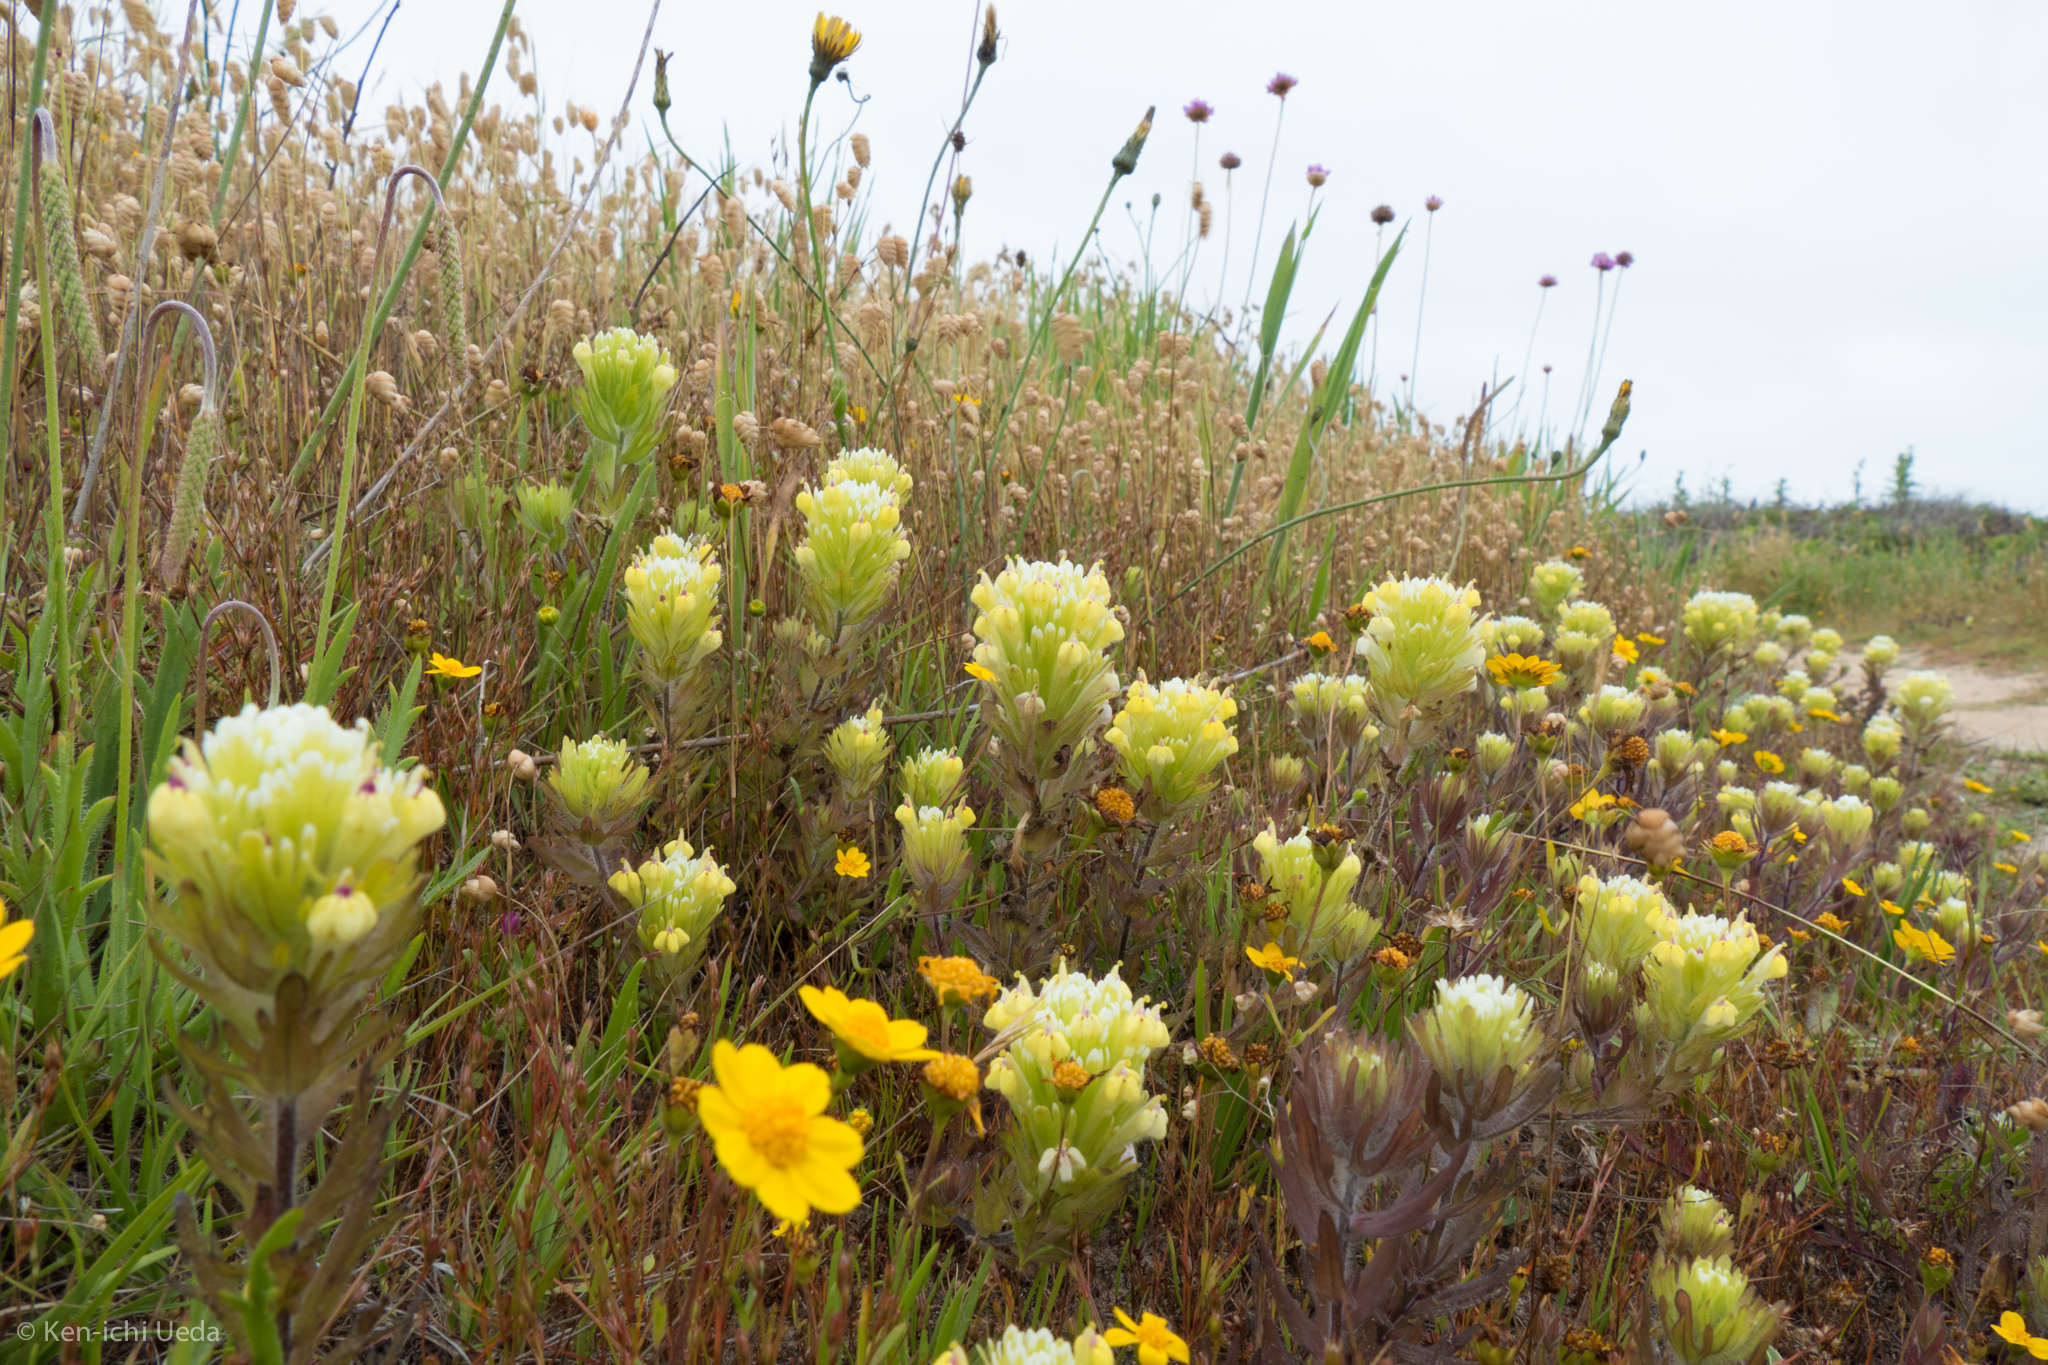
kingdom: Plantae
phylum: Tracheophyta
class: Magnoliopsida
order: Lamiales
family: Orobanchaceae
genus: Castilleja
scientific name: Castilleja ambigua
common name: Johnny-nip
